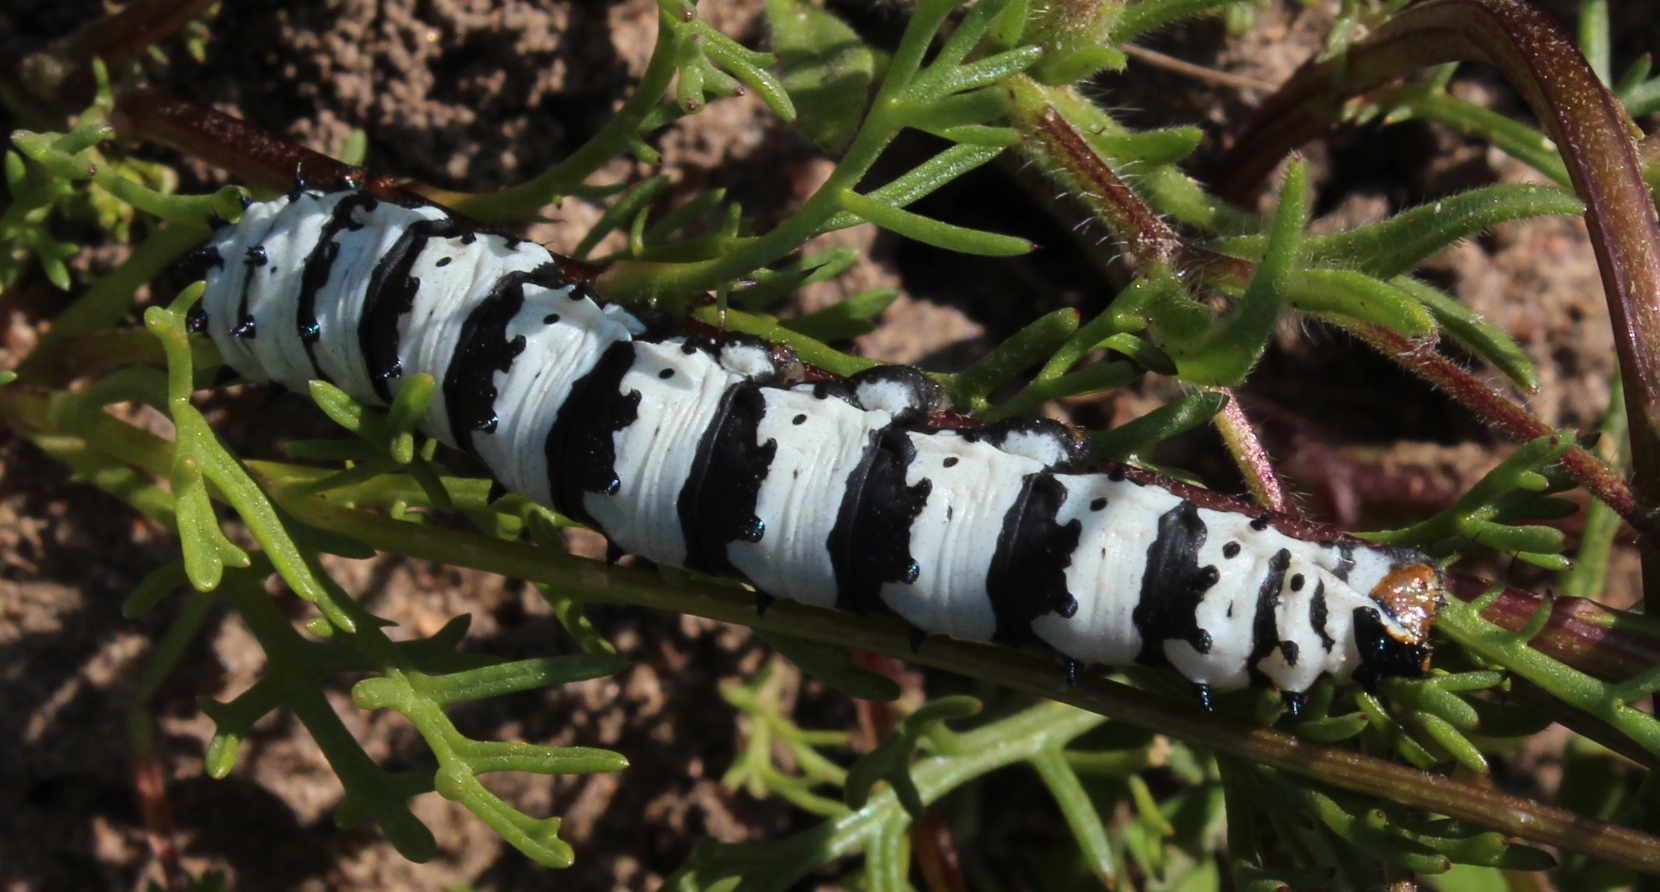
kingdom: Animalia
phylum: Arthropoda
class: Insecta
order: Lepidoptera
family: Saturniidae
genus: Eochroa
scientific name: Eochroa trimeni
